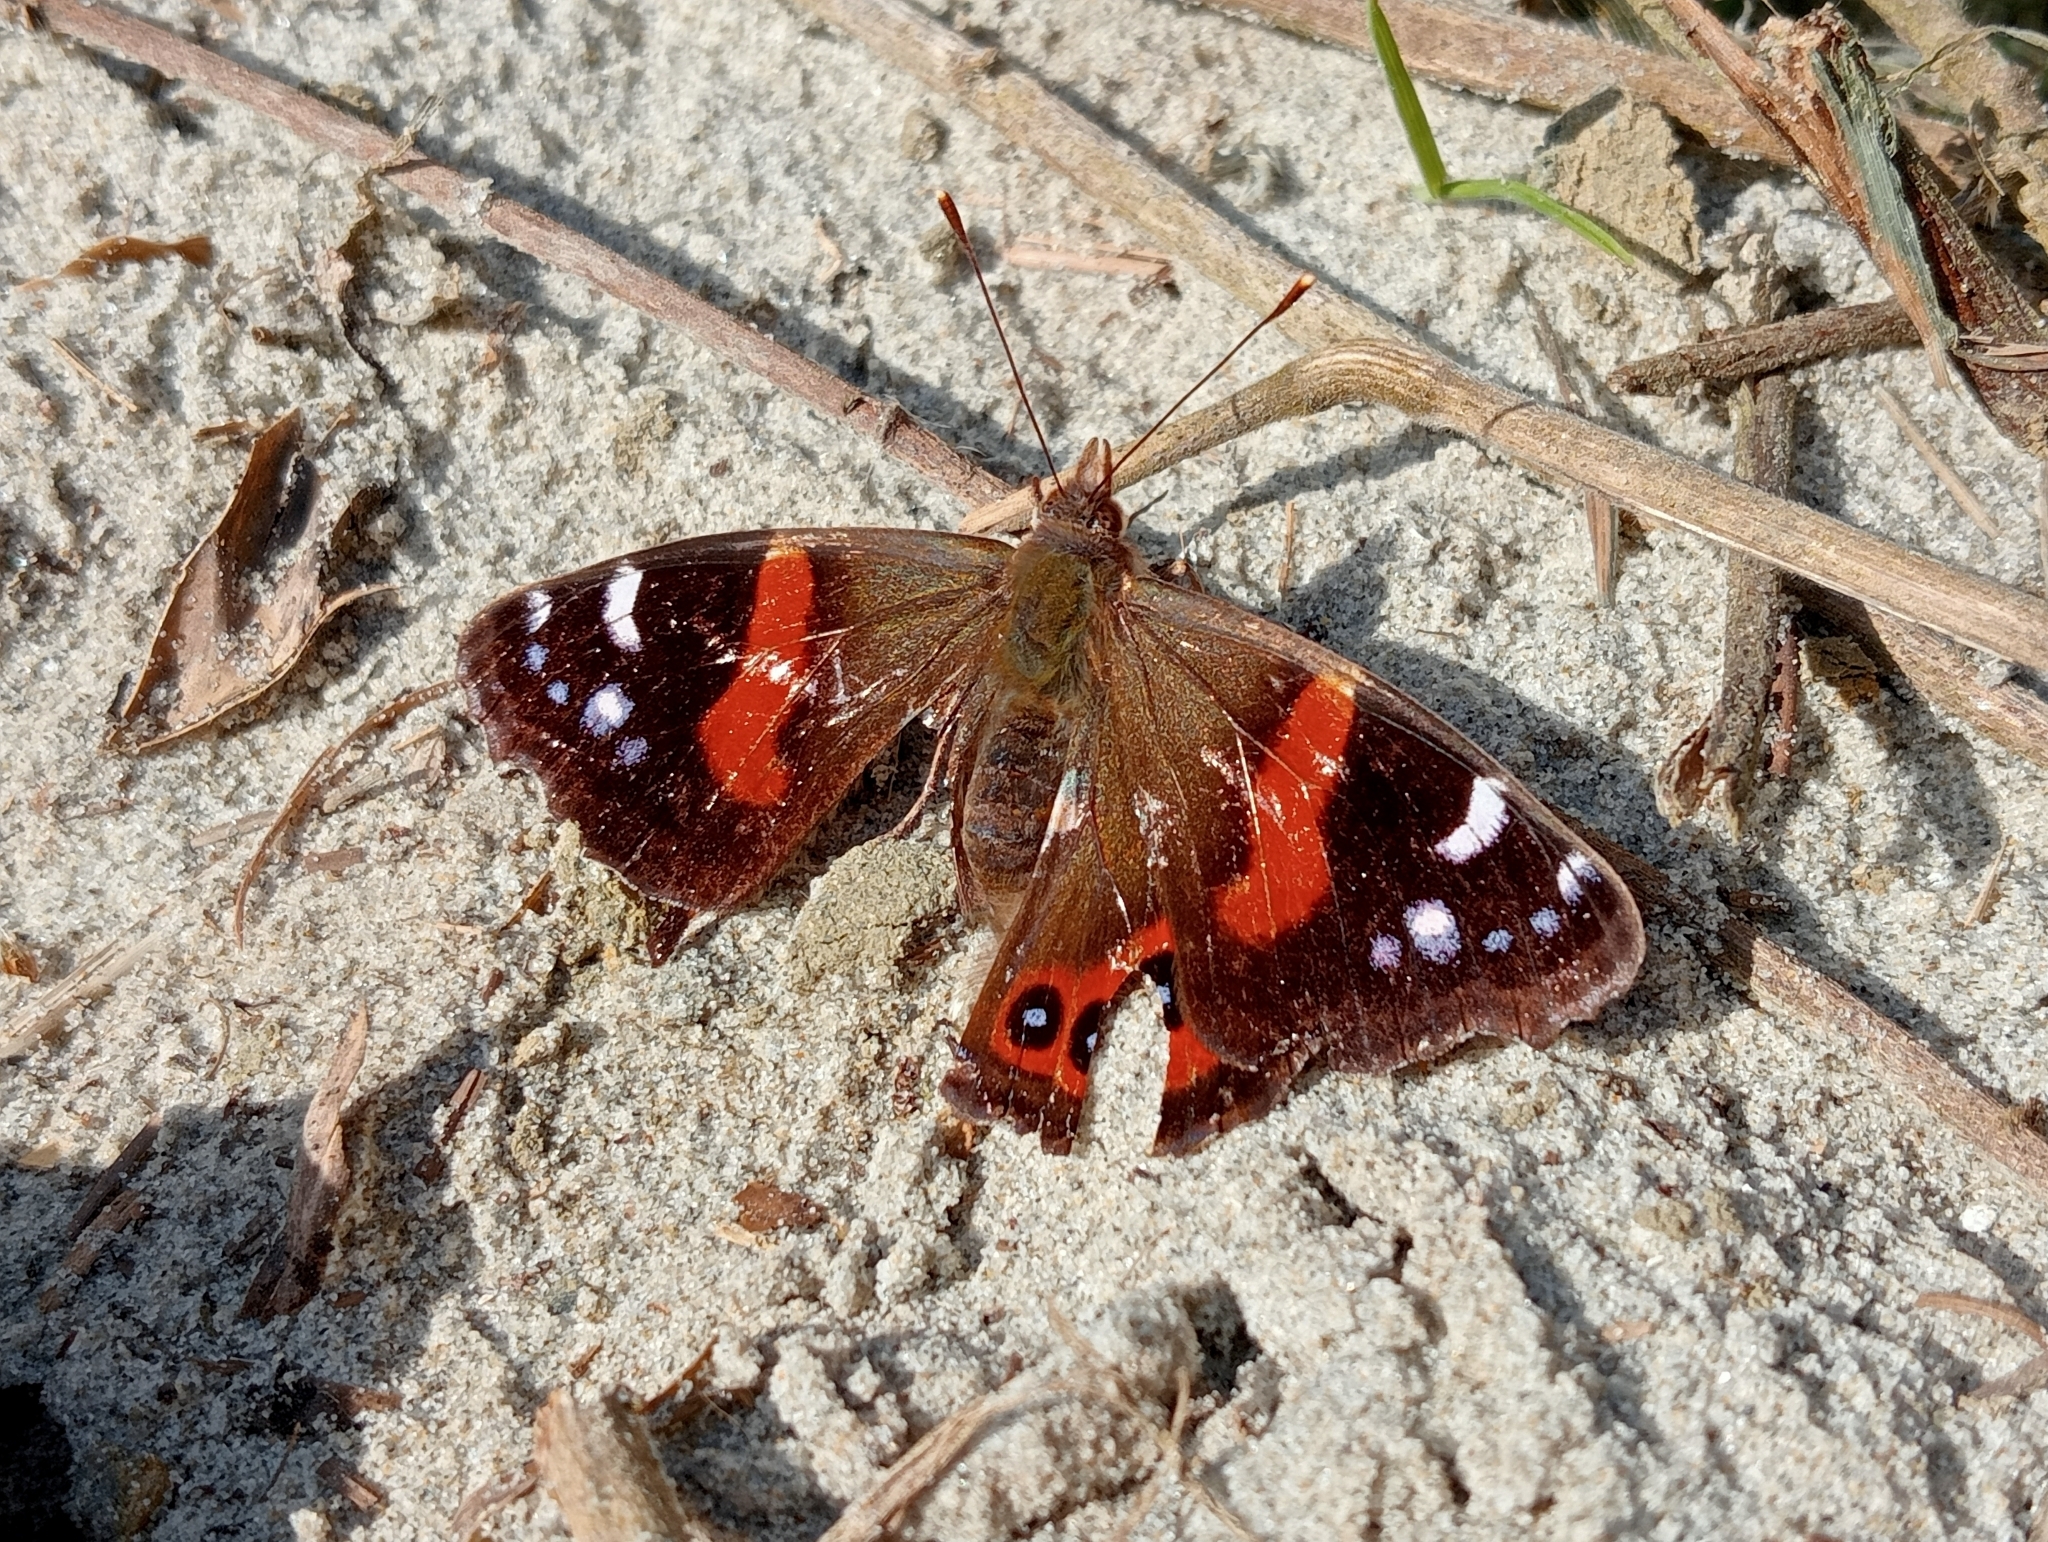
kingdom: Animalia
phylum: Arthropoda
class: Insecta
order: Lepidoptera
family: Nymphalidae
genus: Vanessa
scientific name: Vanessa gonerilla
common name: New zealand red admiral
